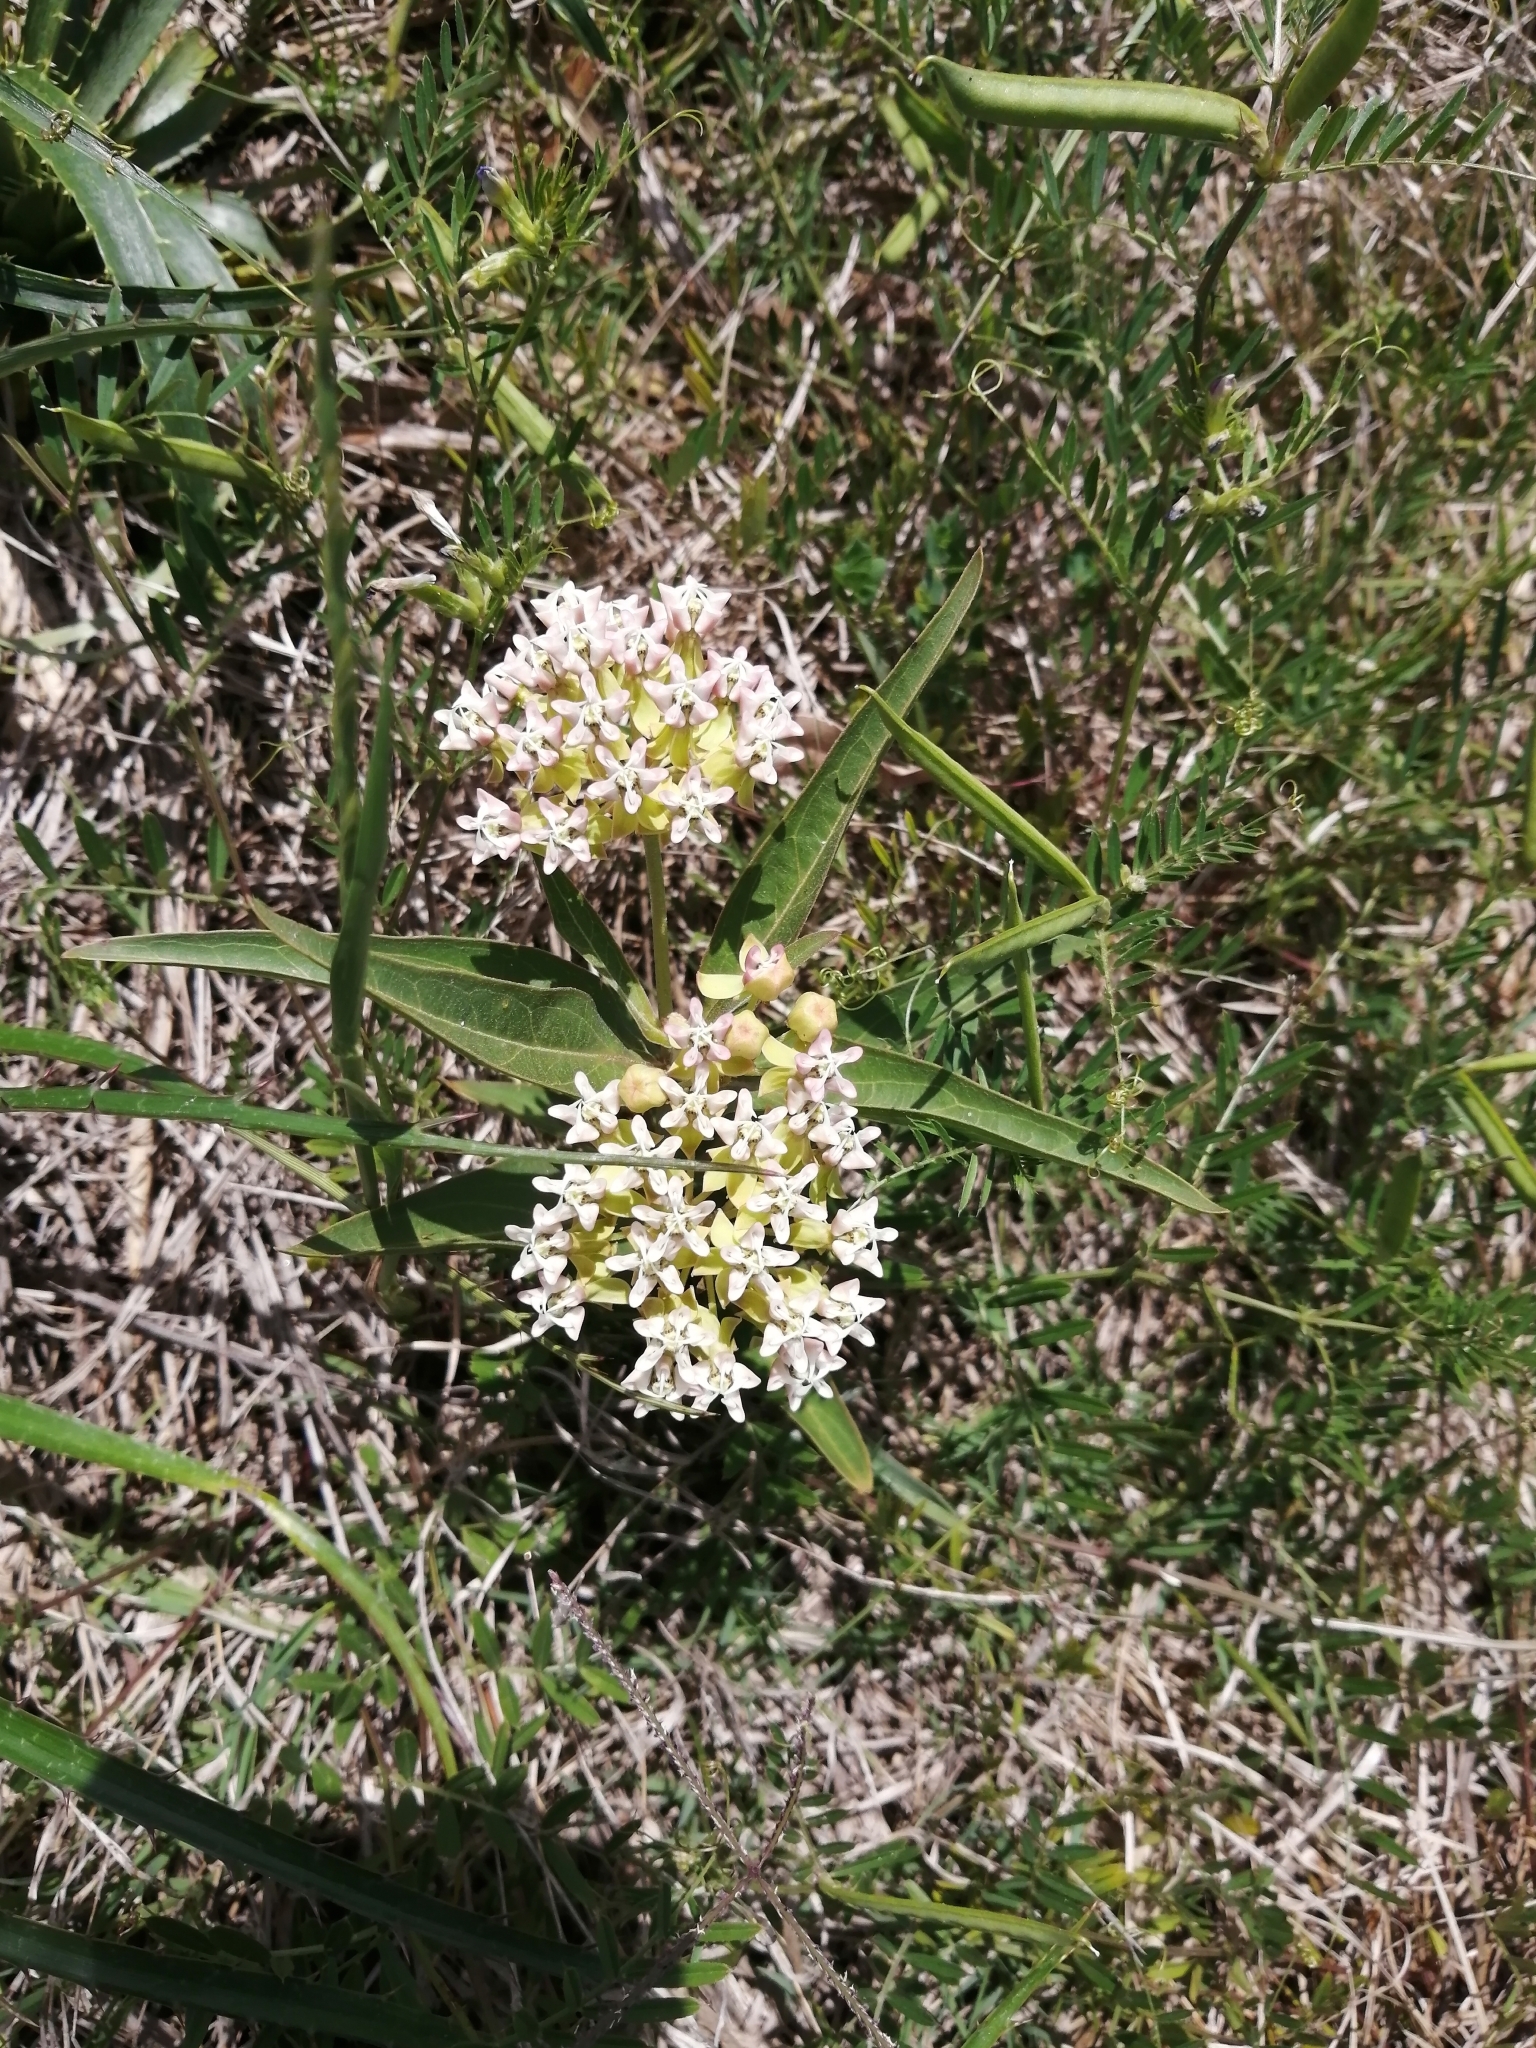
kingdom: Plantae
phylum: Tracheophyta
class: Magnoliopsida
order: Gentianales
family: Apocynaceae
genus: Asclepias
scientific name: Asclepias mellodora
